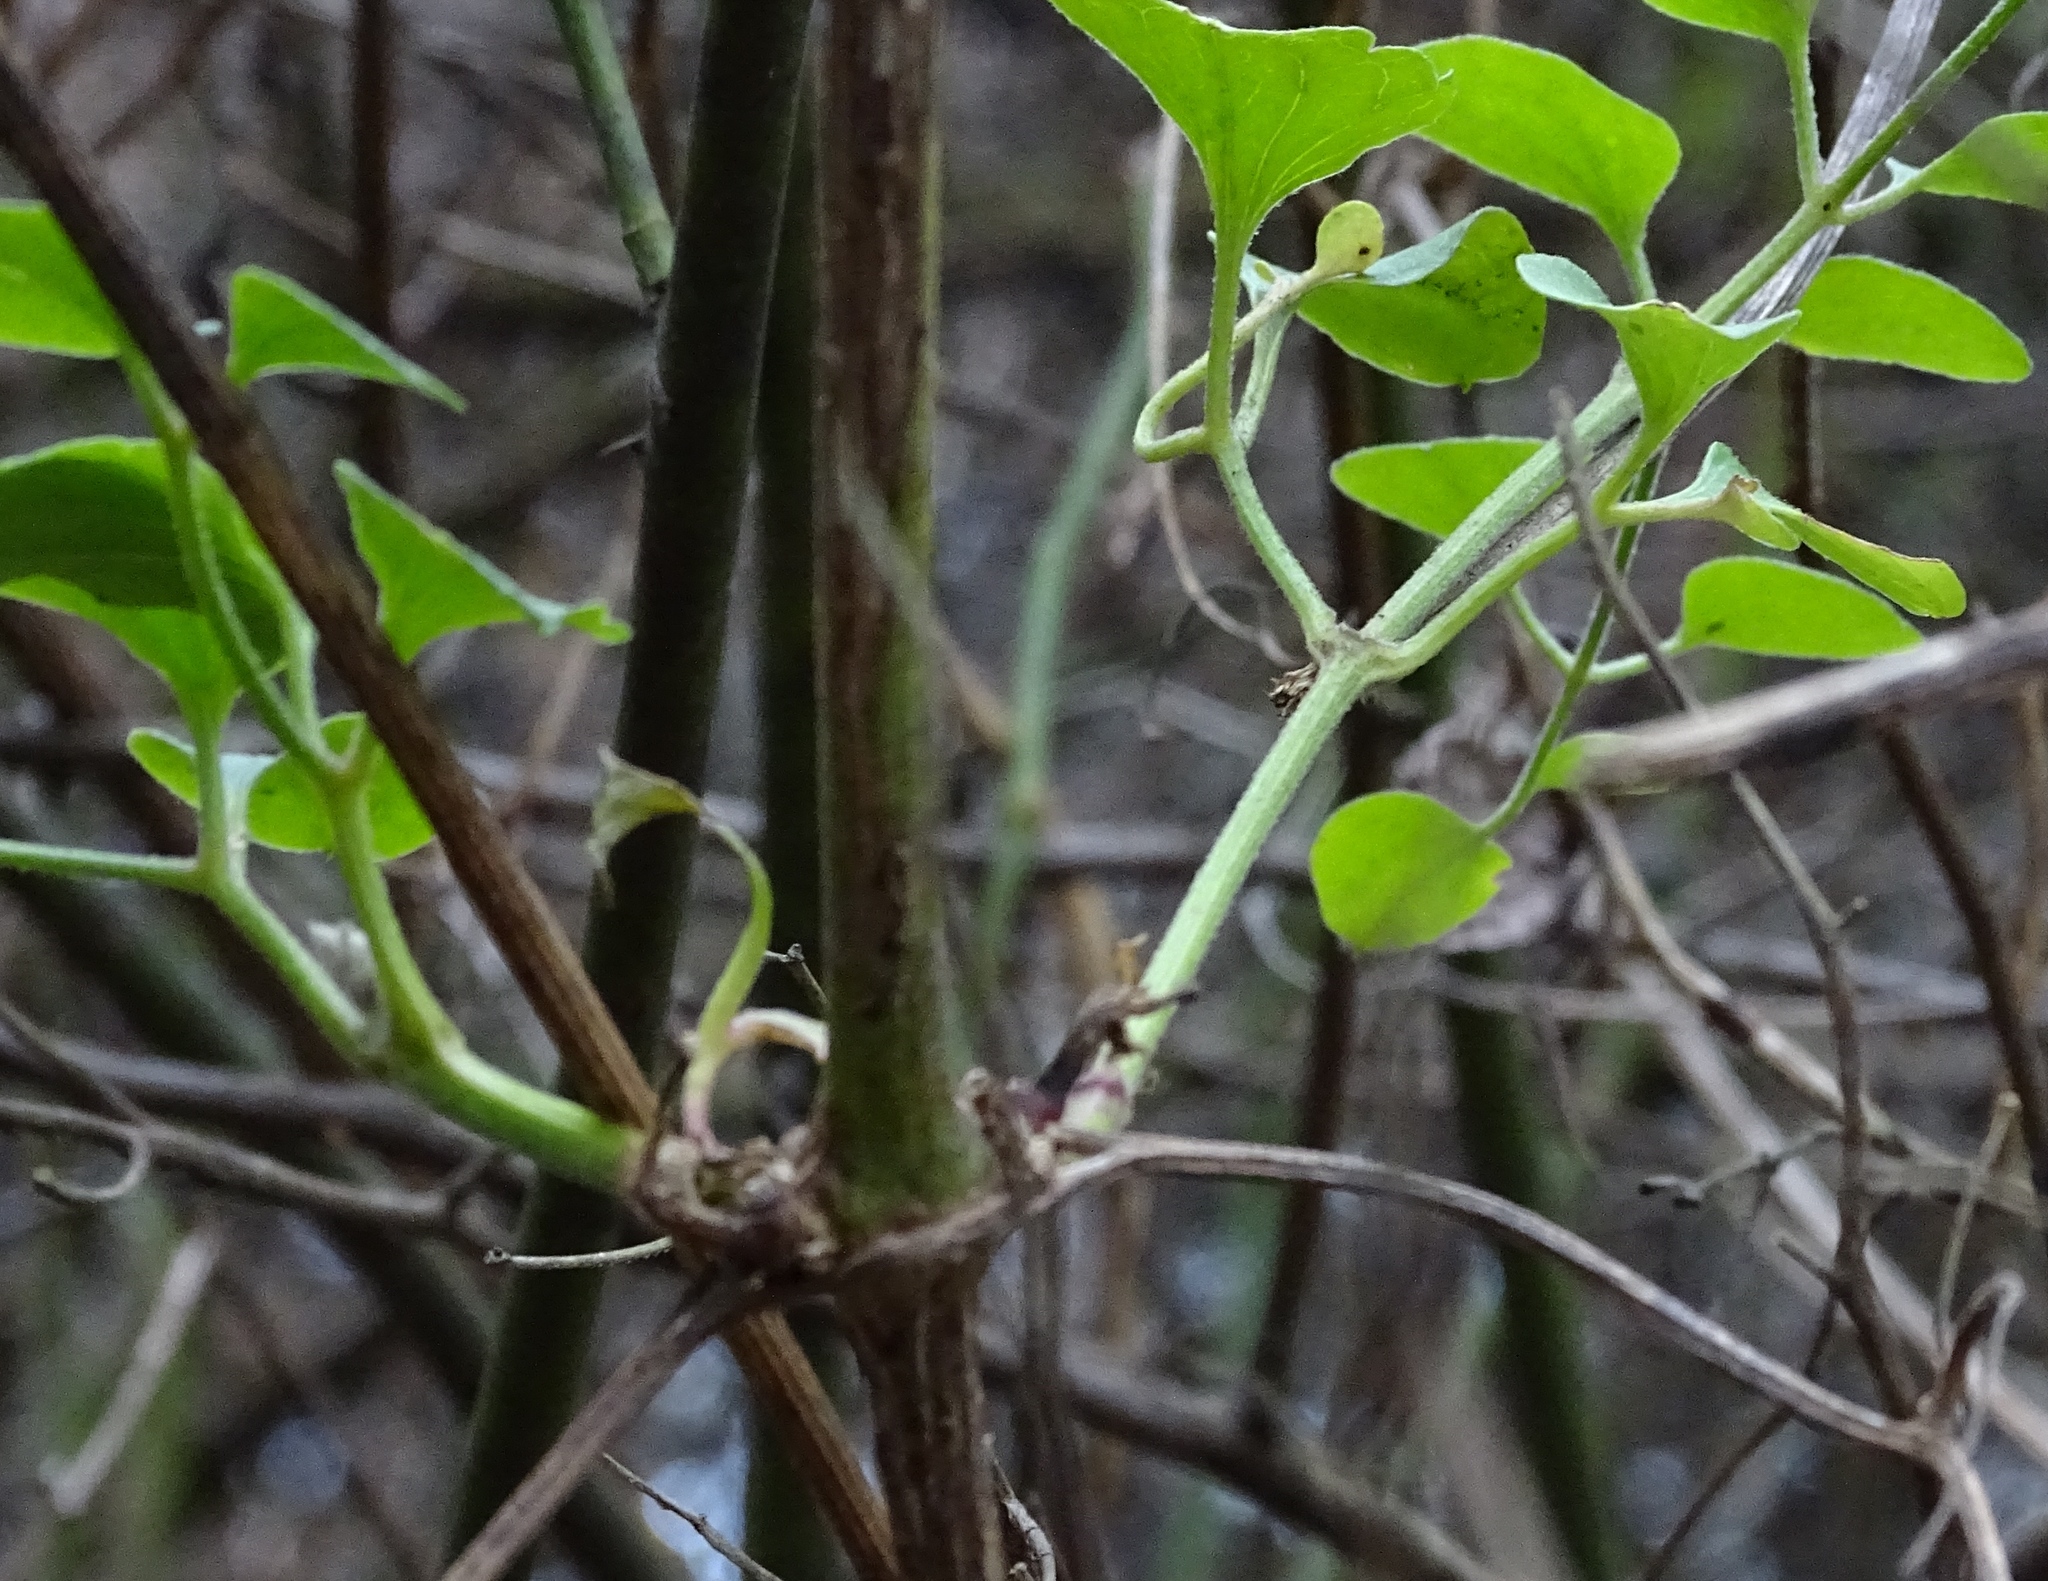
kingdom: Plantae
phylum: Tracheophyta
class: Magnoliopsida
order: Ranunculales
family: Ranunculaceae
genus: Clematis
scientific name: Clematis terniflora
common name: Sweet autumn clematis
